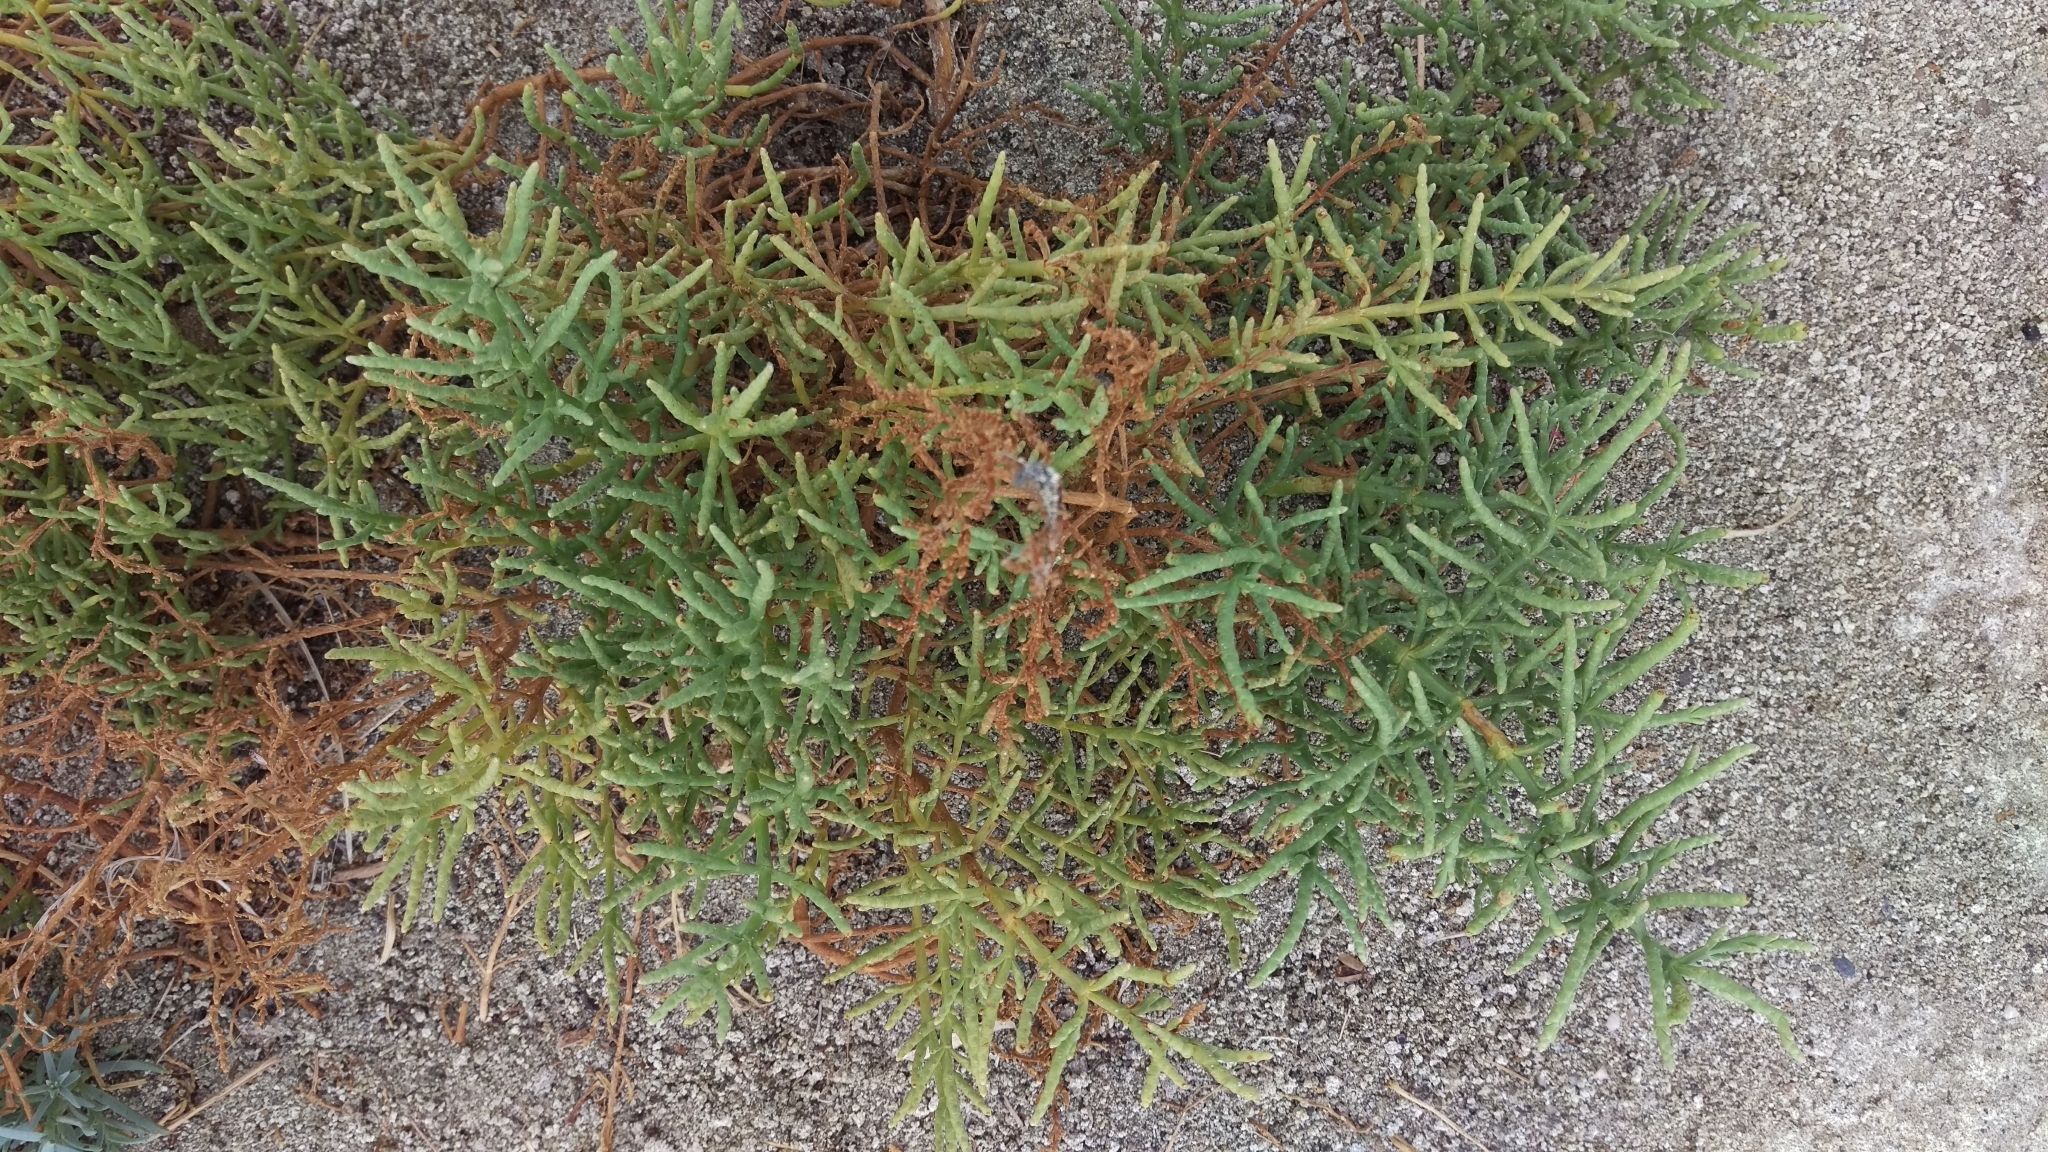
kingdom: Plantae
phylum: Tracheophyta
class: Magnoliopsida
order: Caryophyllales
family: Amaranthaceae
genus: Allenrolfea
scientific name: Allenrolfea occidentalis
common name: Iodine-bush
